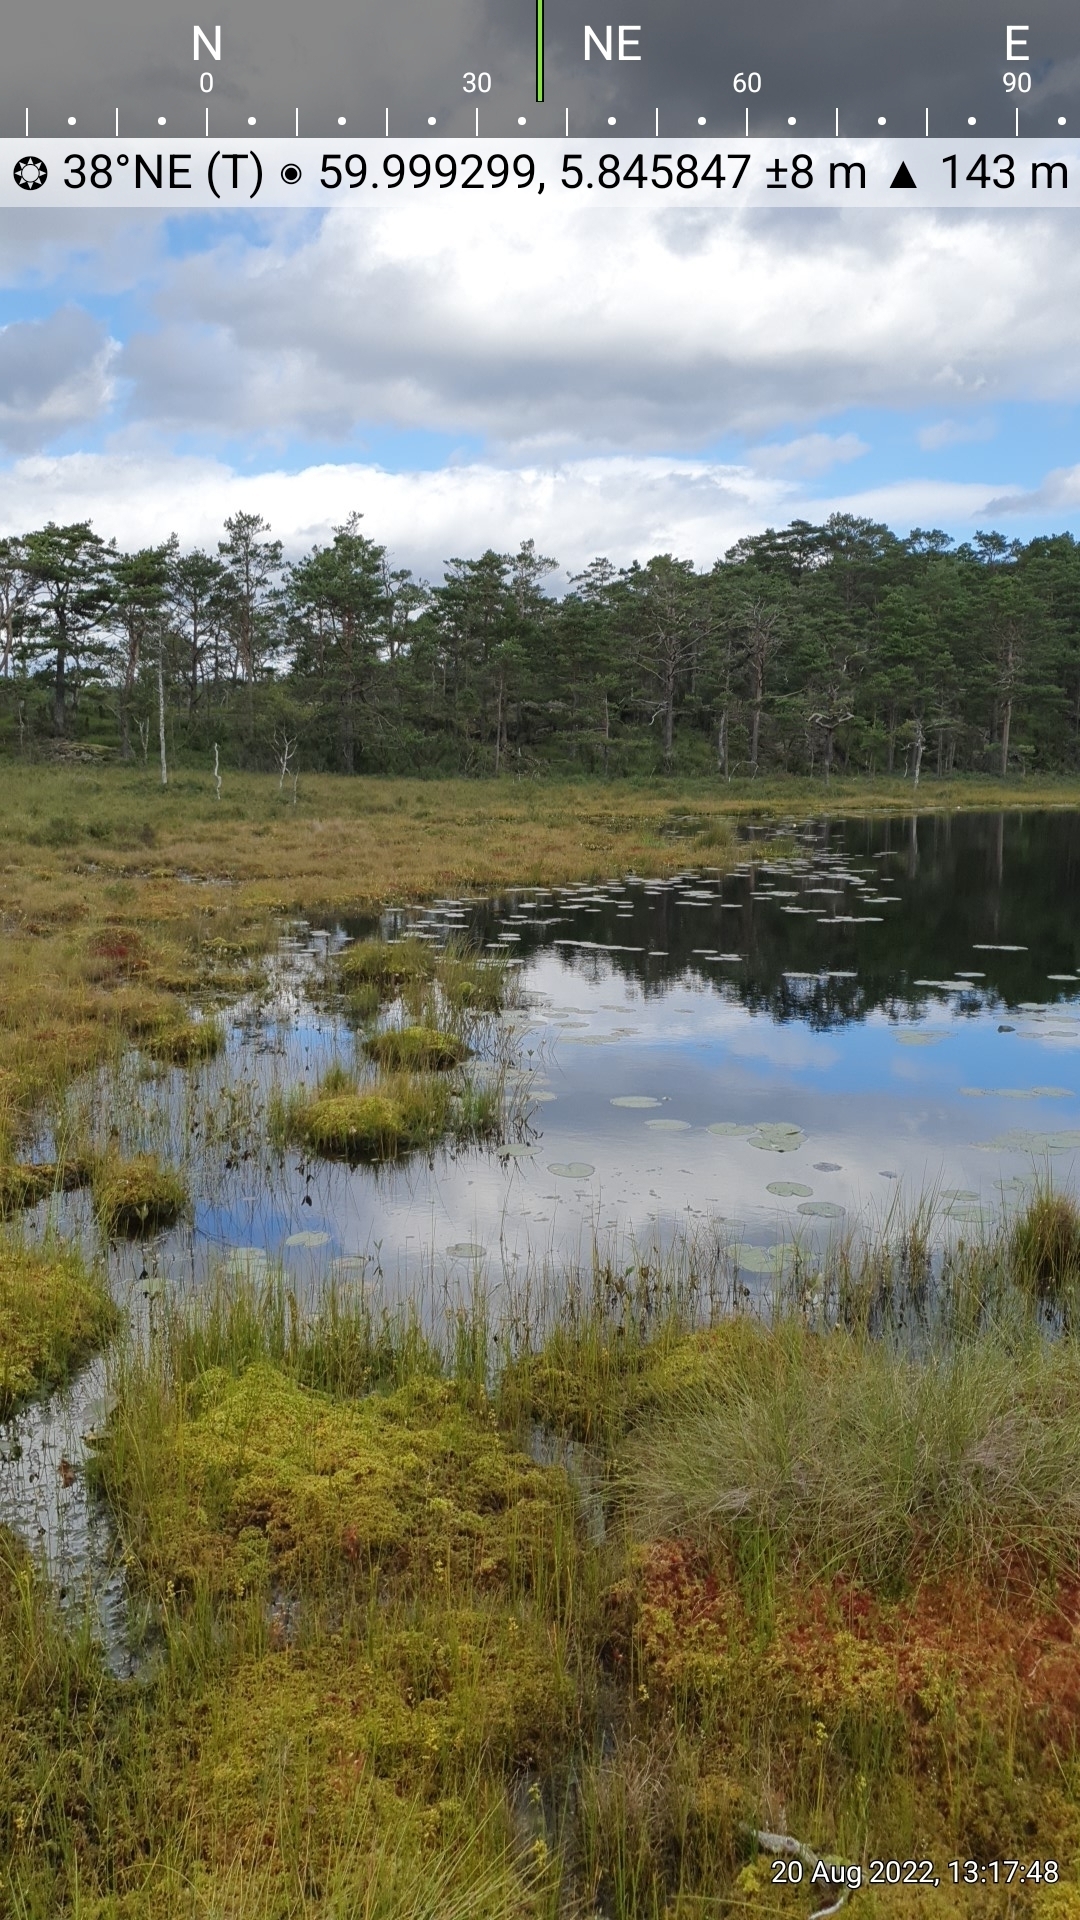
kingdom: Plantae
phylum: Tracheophyta
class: Liliopsida
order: Alismatales
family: Scheuchzeriaceae
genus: Scheuchzeria
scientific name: Scheuchzeria palustris
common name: Rannoch-rush
